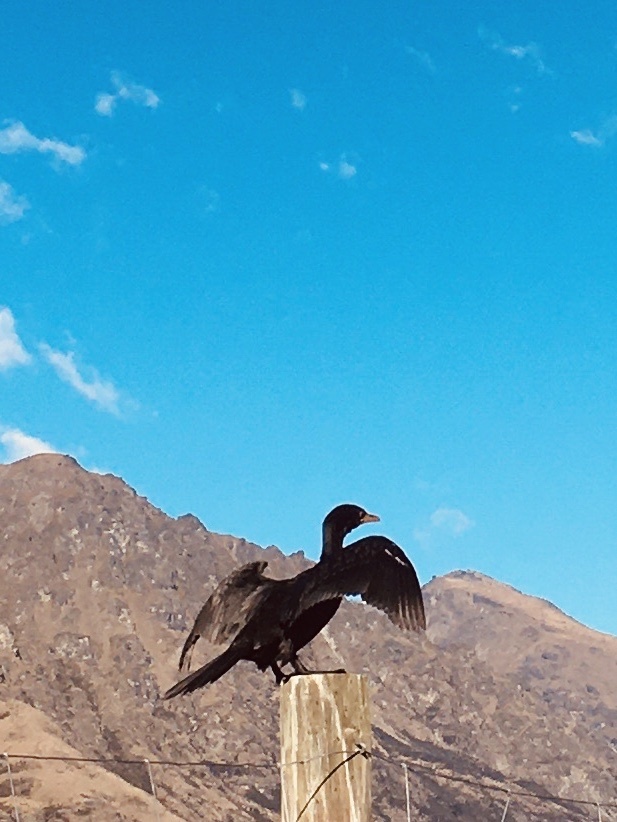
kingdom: Animalia
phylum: Chordata
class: Aves
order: Suliformes
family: Phalacrocoracidae
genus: Microcarbo
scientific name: Microcarbo melanoleucos
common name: Little pied cormorant
